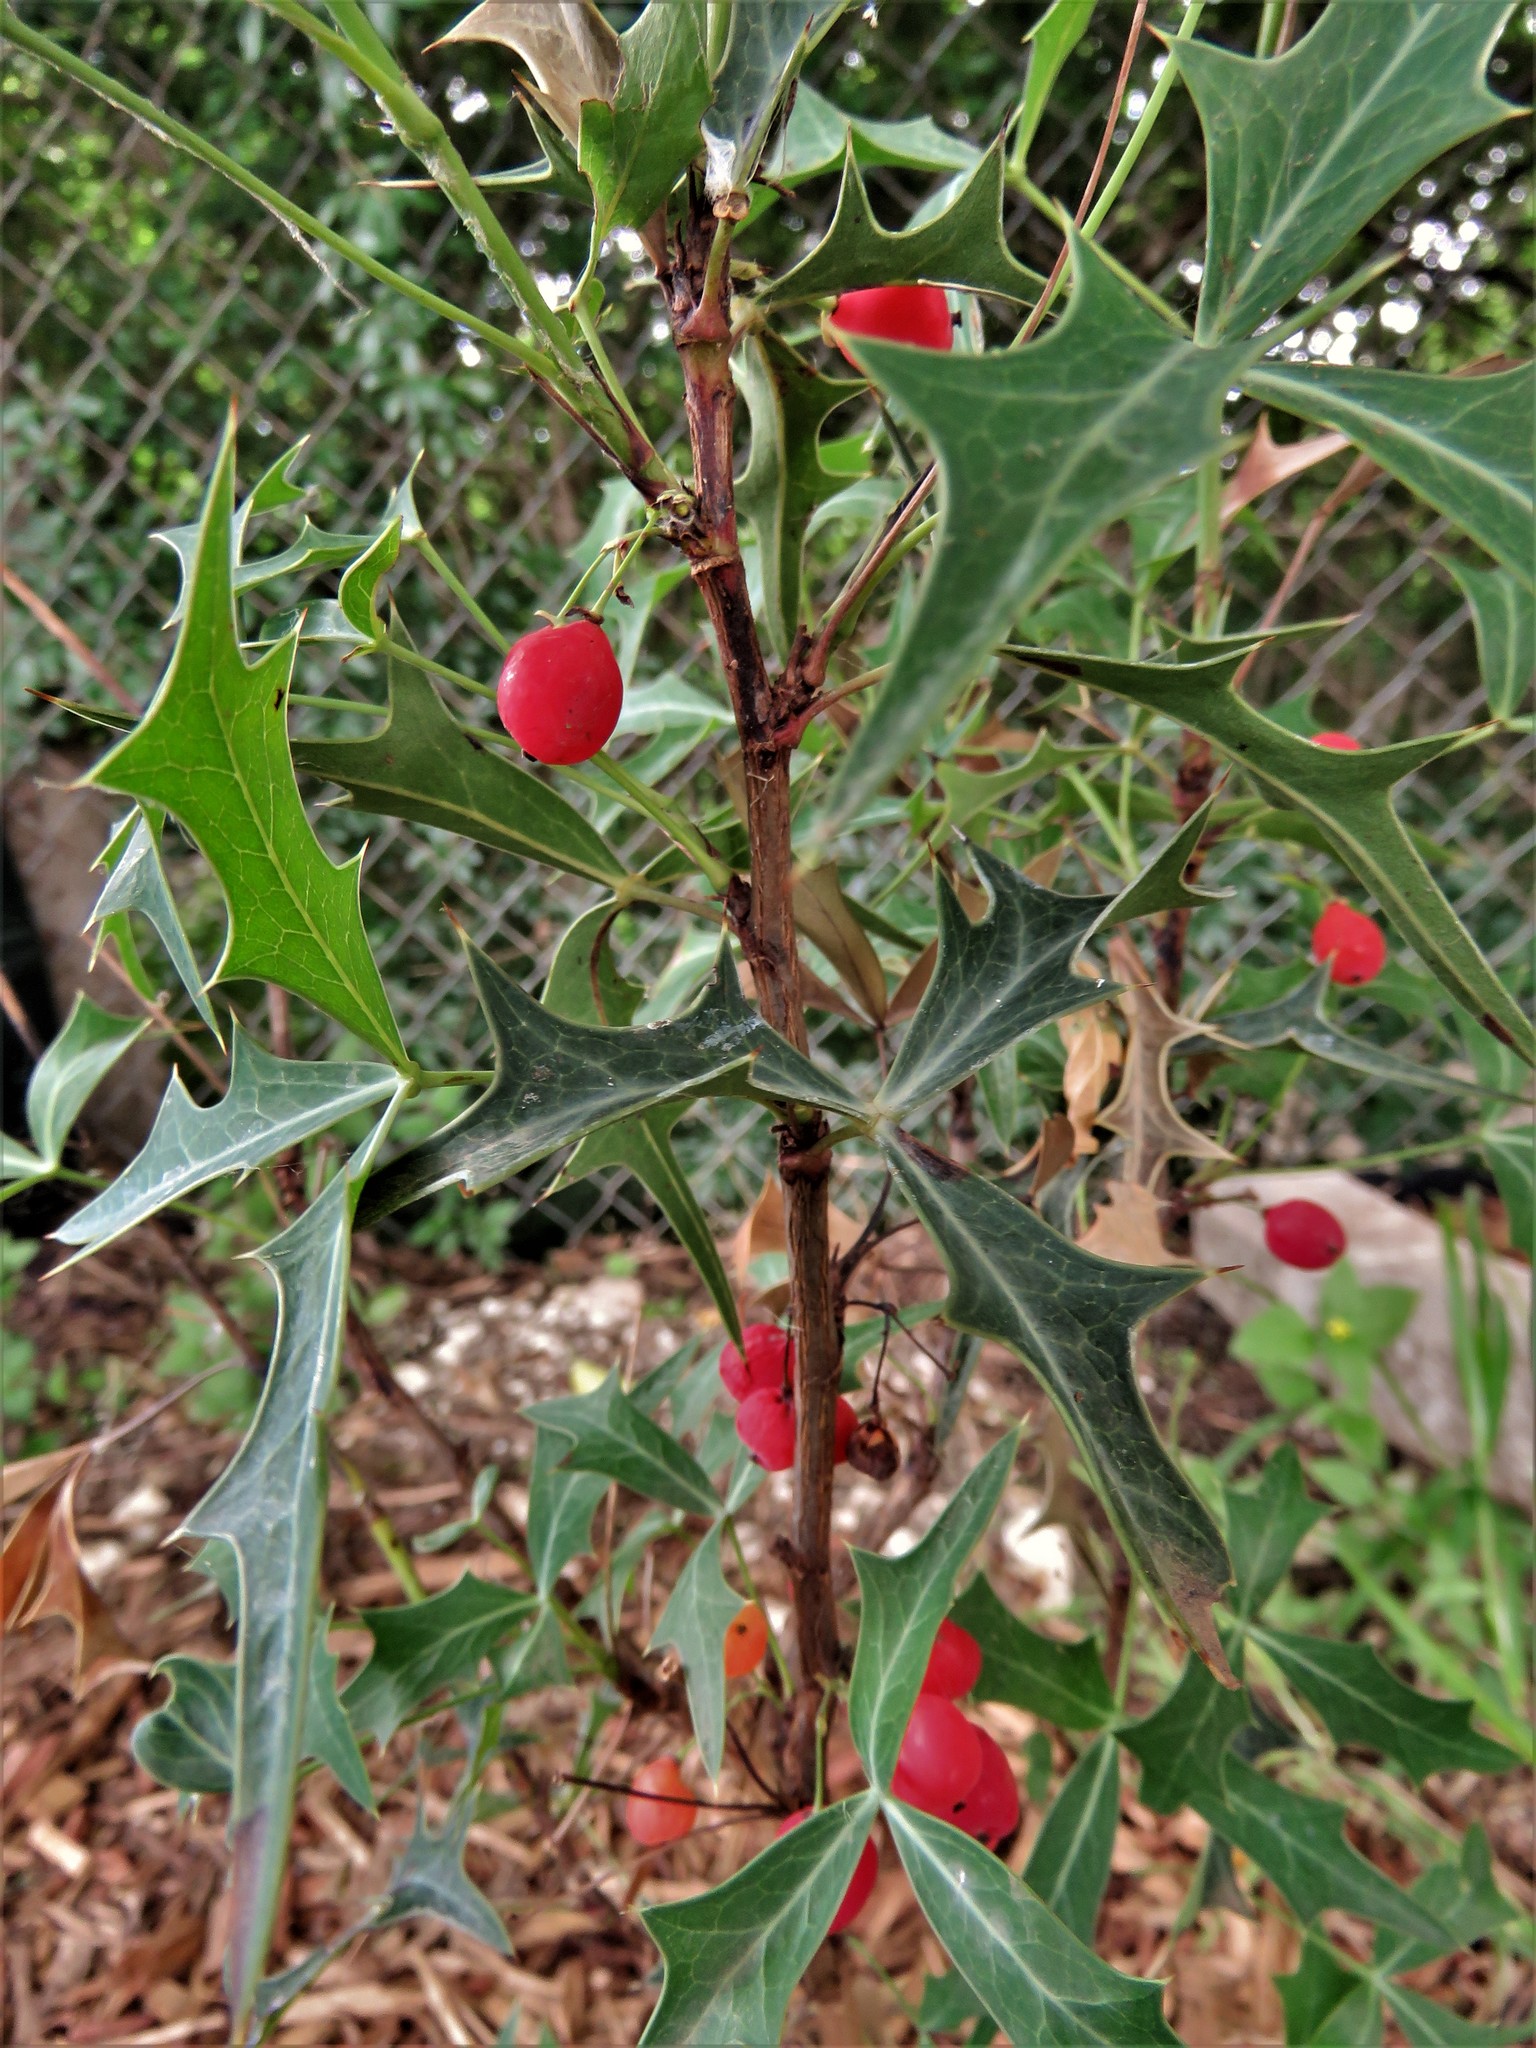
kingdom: Plantae
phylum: Tracheophyta
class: Magnoliopsida
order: Ranunculales
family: Berberidaceae
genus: Alloberberis
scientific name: Alloberberis trifoliolata
